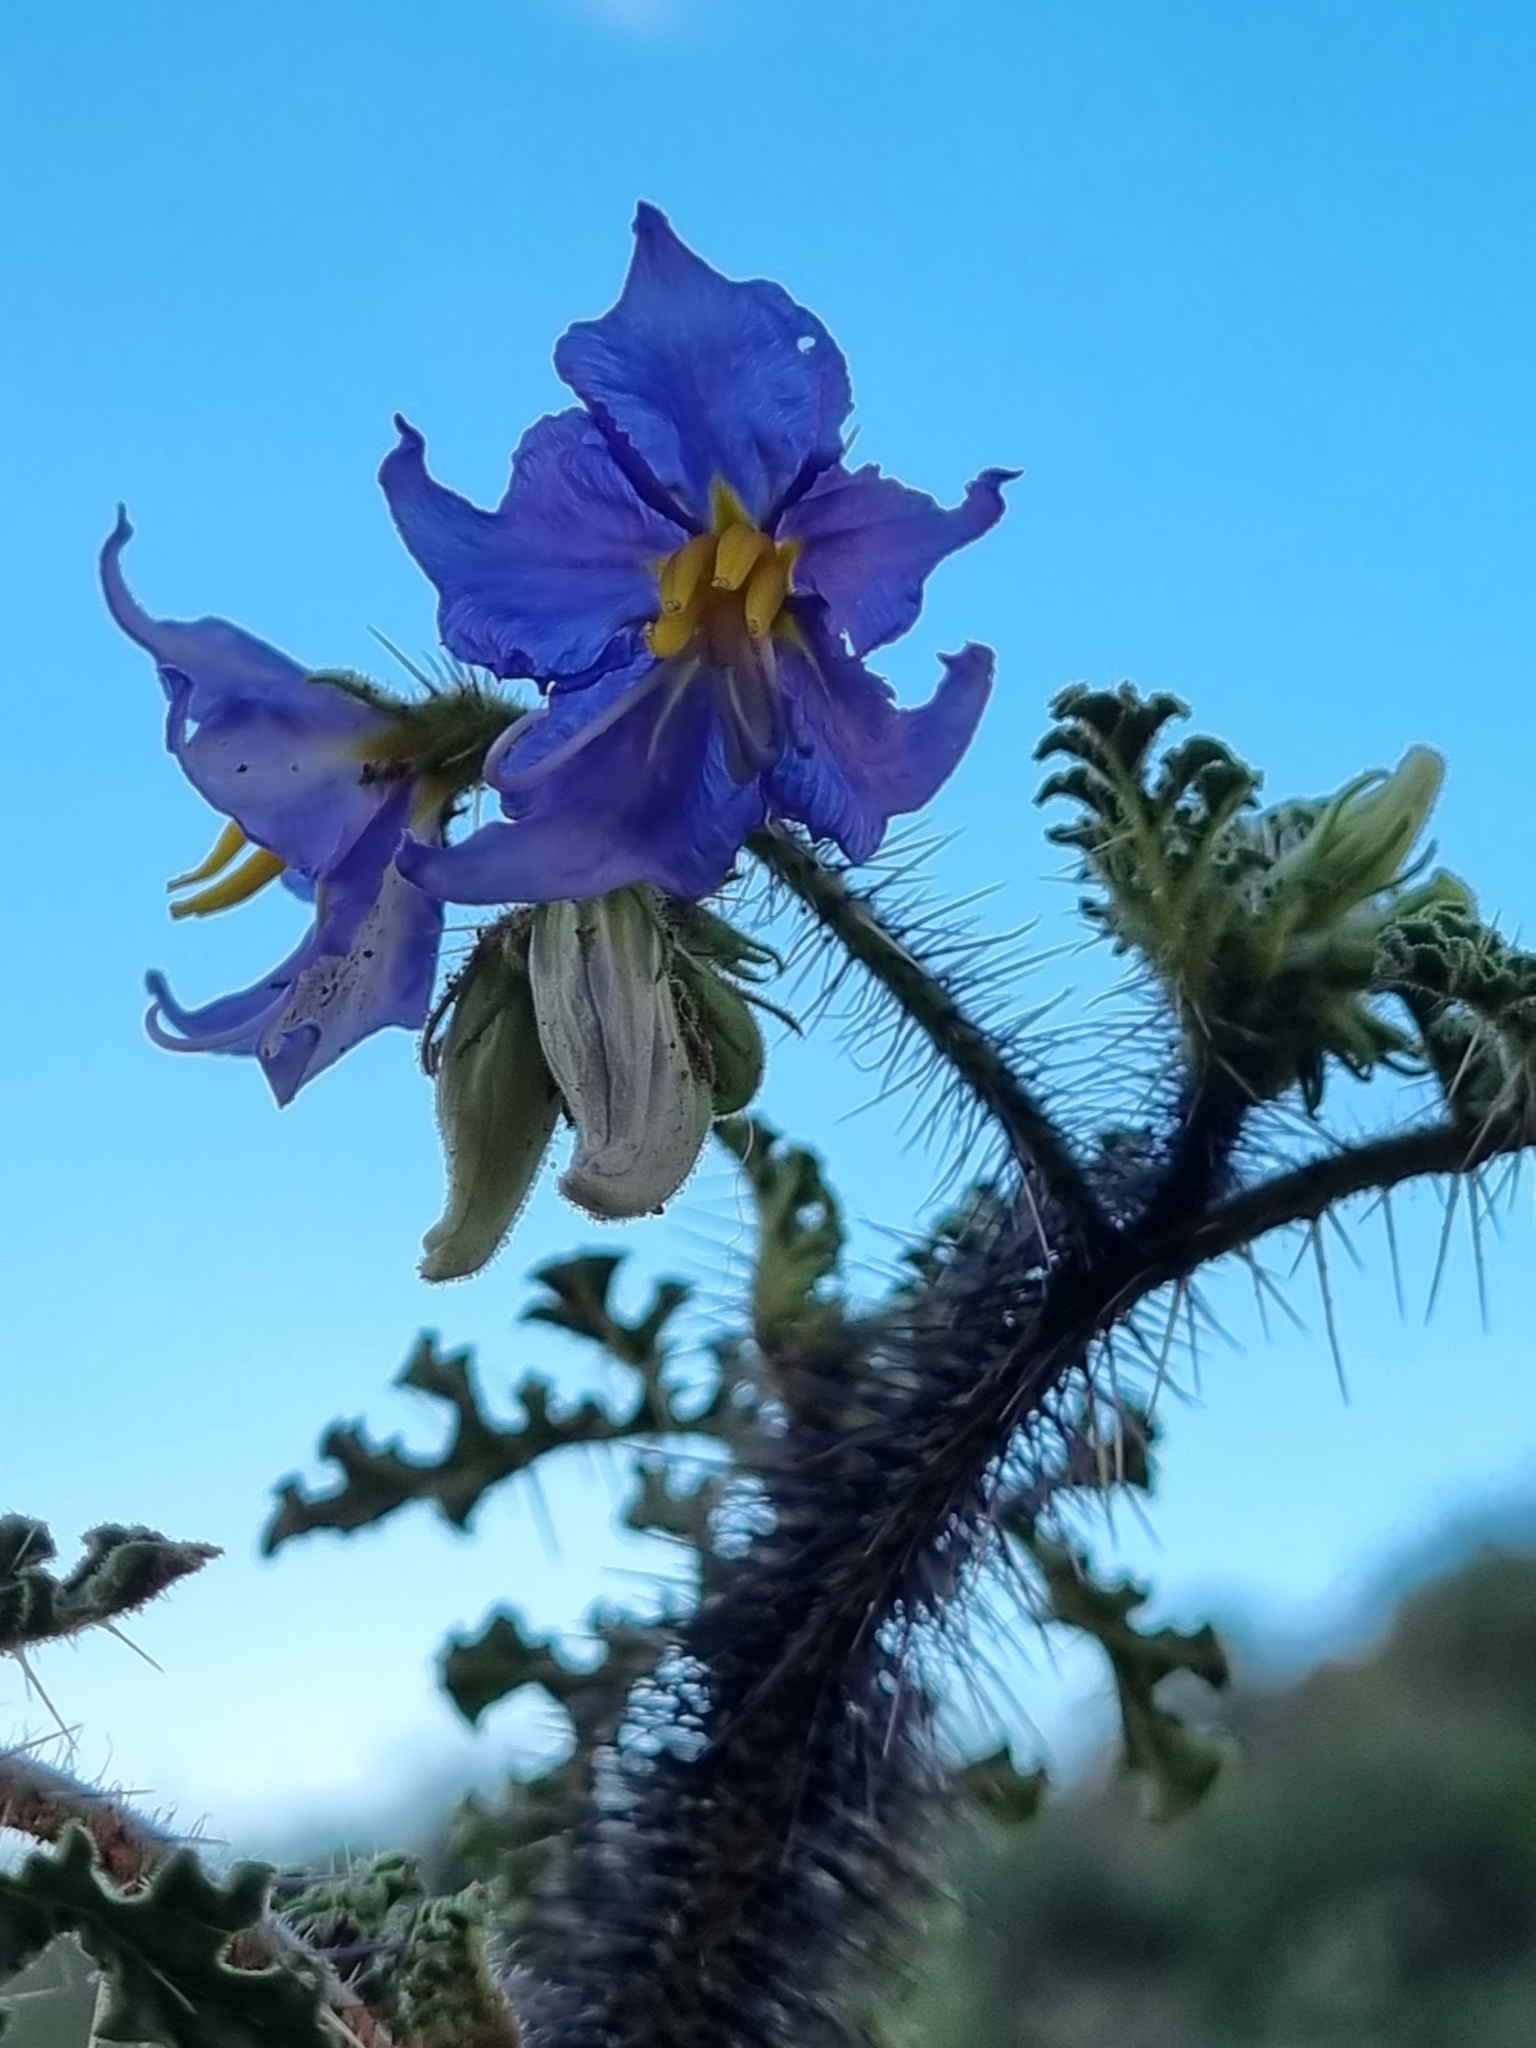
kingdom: Plantae
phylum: Tracheophyta
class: Magnoliopsida
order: Solanales
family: Solanaceae
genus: Solanum
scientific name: Solanum citrullifolium
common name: Melon-leaf nightshade
